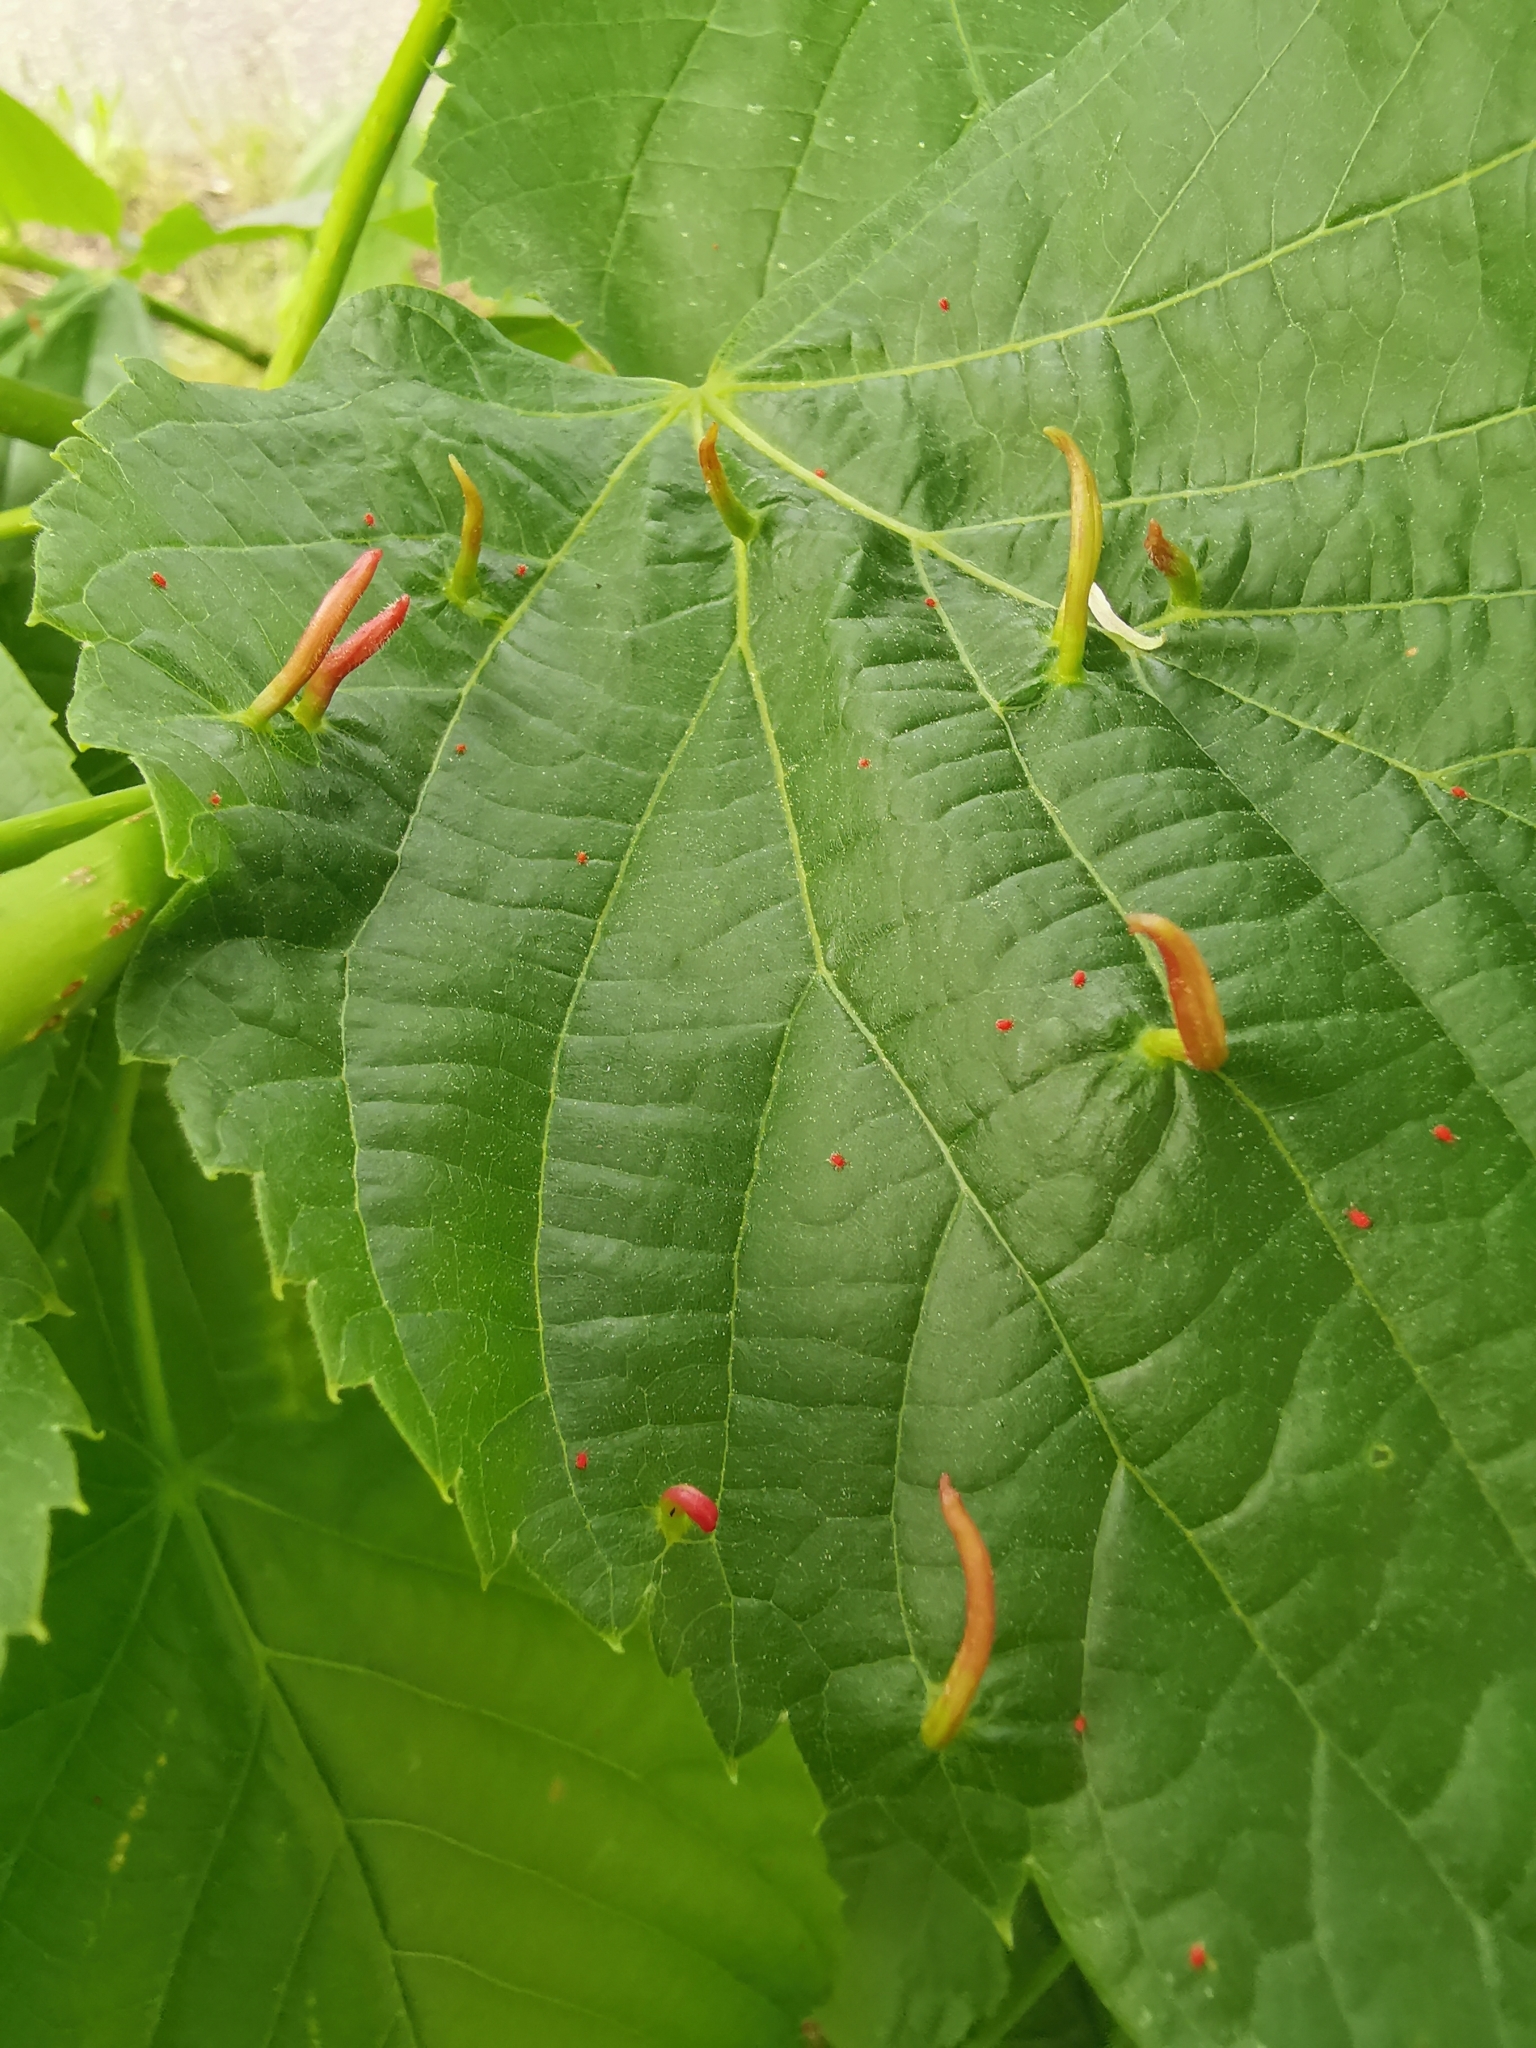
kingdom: Animalia
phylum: Arthropoda
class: Arachnida
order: Trombidiformes
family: Eriophyidae
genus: Eriophyes
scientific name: Eriophyes tiliae
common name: Red nail gall mite
